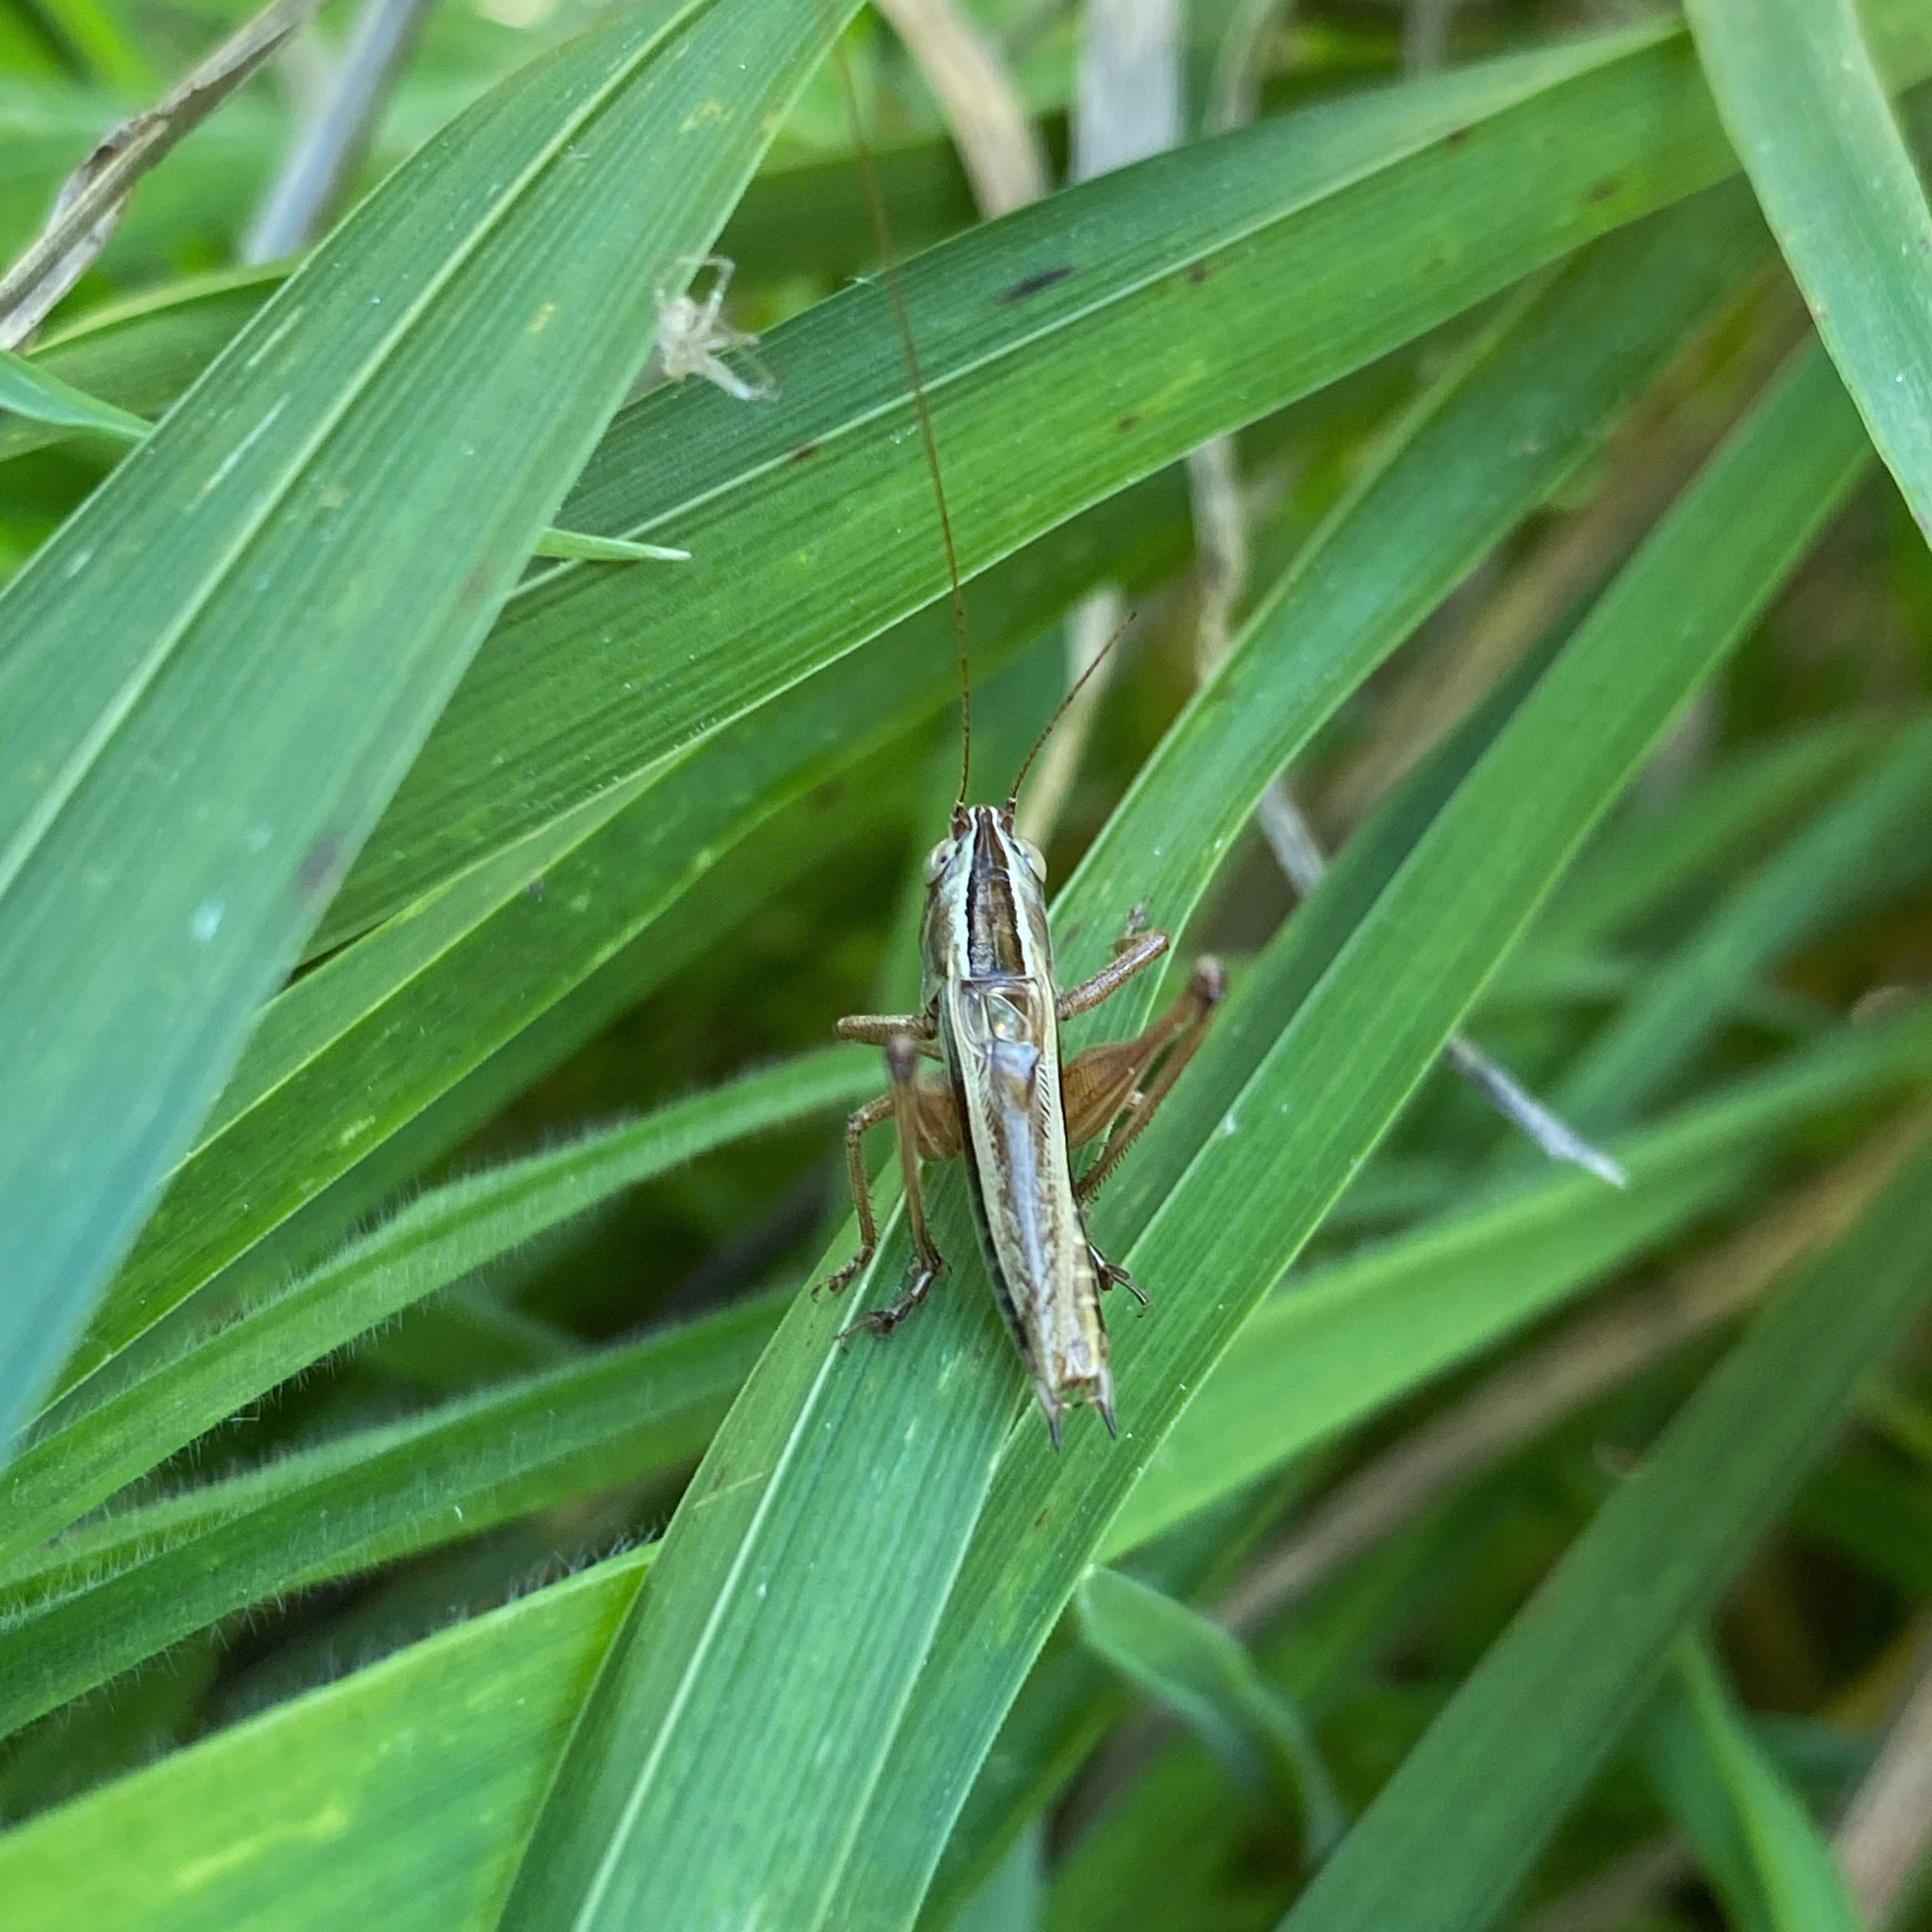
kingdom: Animalia
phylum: Arthropoda
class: Insecta
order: Orthoptera
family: Tettigoniidae
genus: Conocephalus
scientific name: Conocephalus albescens
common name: Whitish meadow katydid
